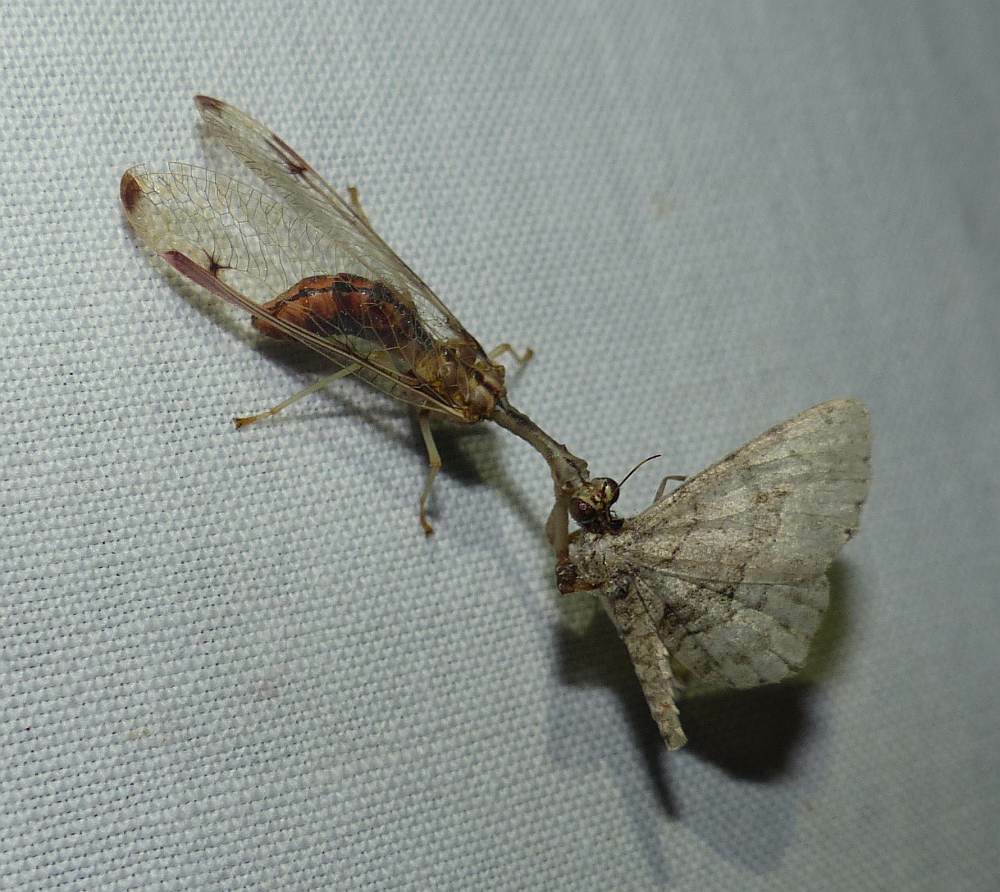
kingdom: Animalia
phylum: Arthropoda
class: Insecta
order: Neuroptera
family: Mantispidae
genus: Dicromantispa
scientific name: Dicromantispa interrupta
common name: Four-spotted mantidfly
